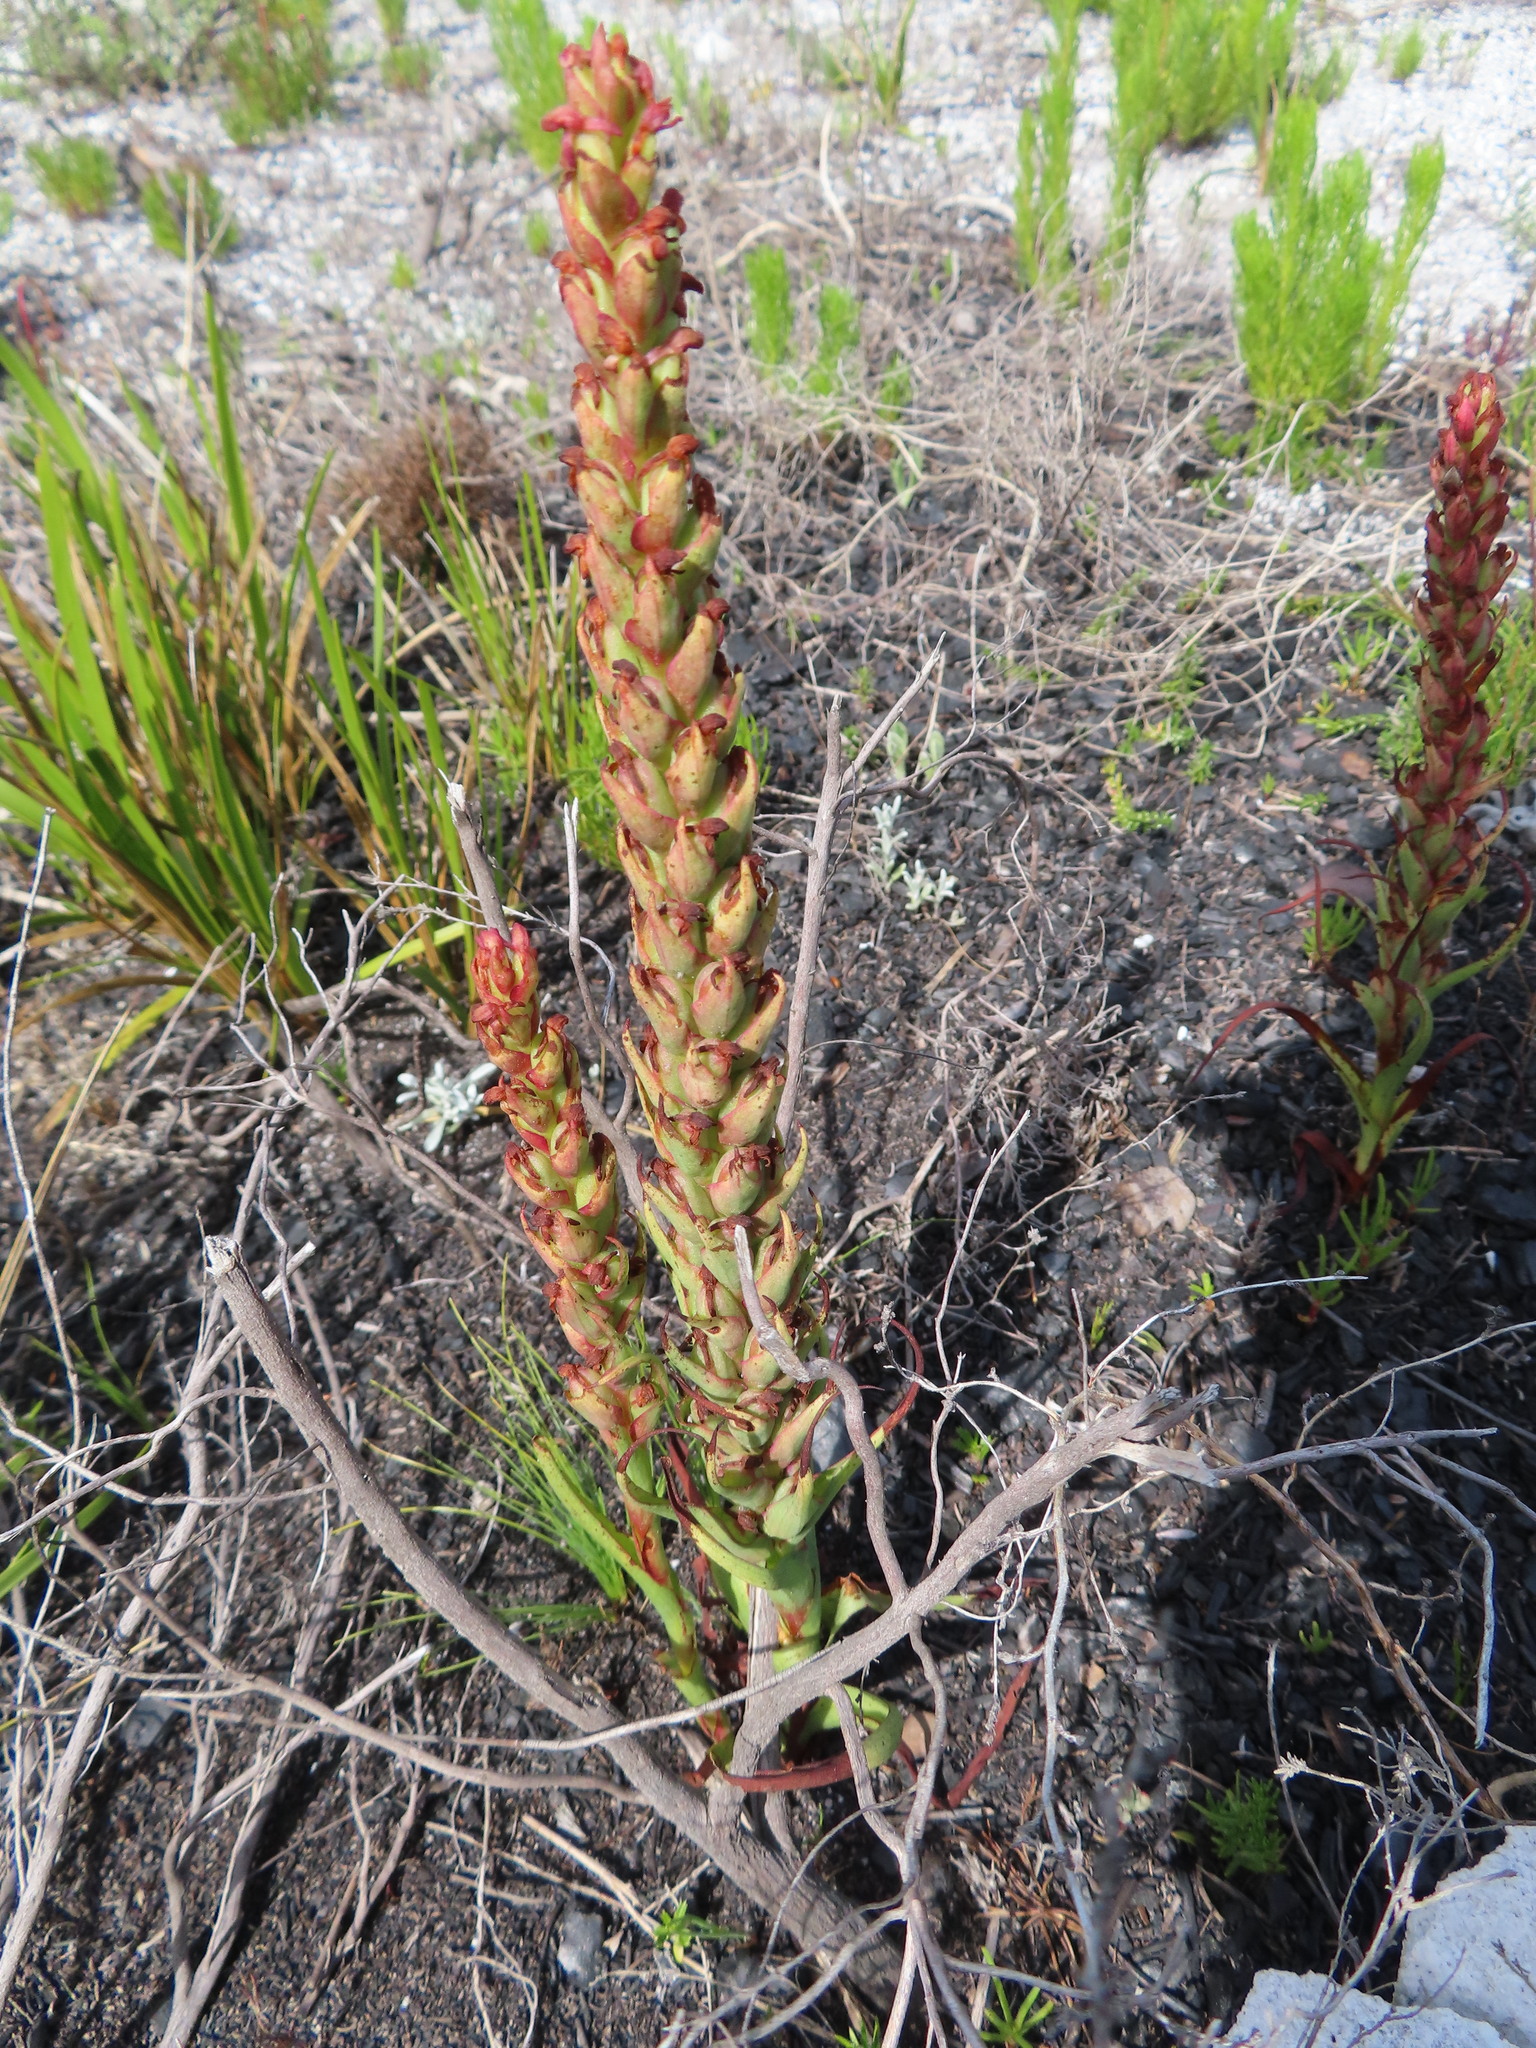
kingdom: Plantae
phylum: Tracheophyta
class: Liliopsida
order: Asparagales
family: Orchidaceae
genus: Disa
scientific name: Disa bracteata
